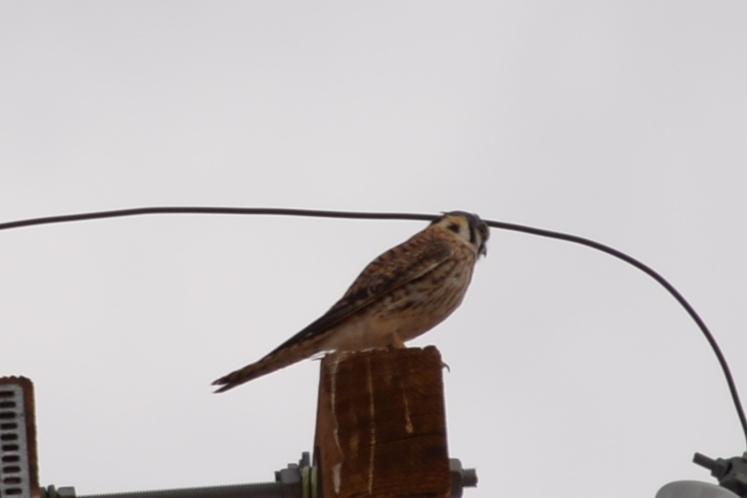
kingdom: Animalia
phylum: Chordata
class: Aves
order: Falconiformes
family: Falconidae
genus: Falco
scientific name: Falco sparverius
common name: American kestrel
